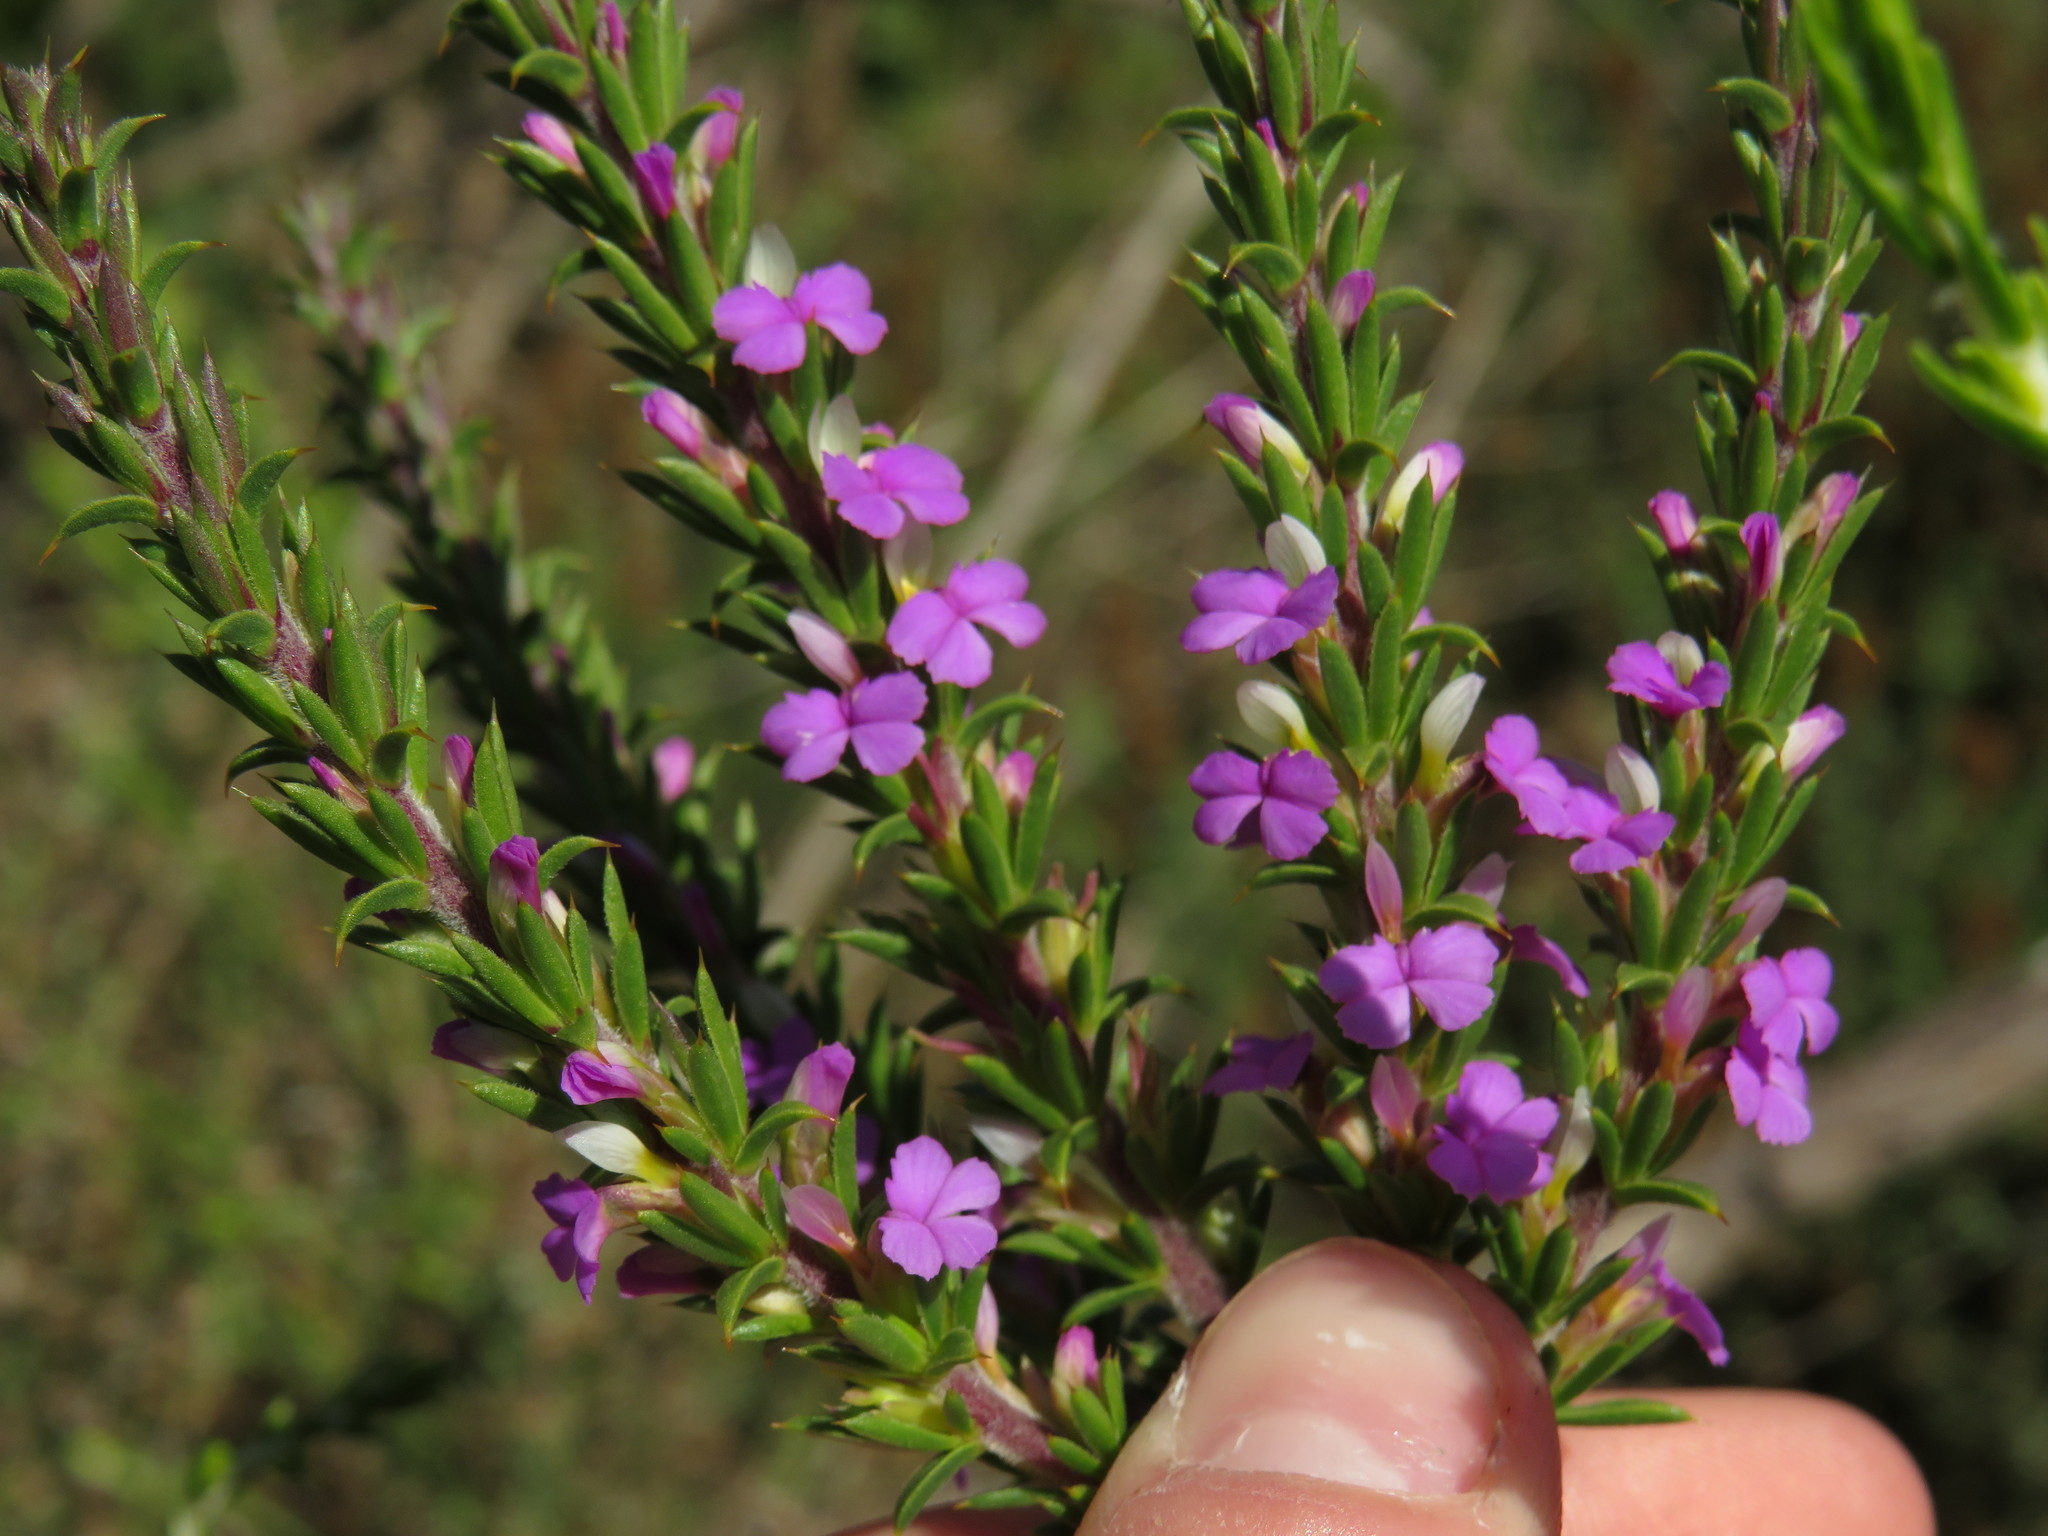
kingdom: Plantae
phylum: Tracheophyta
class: Magnoliopsida
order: Fabales
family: Polygalaceae
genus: Muraltia
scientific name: Muraltia heisteria
